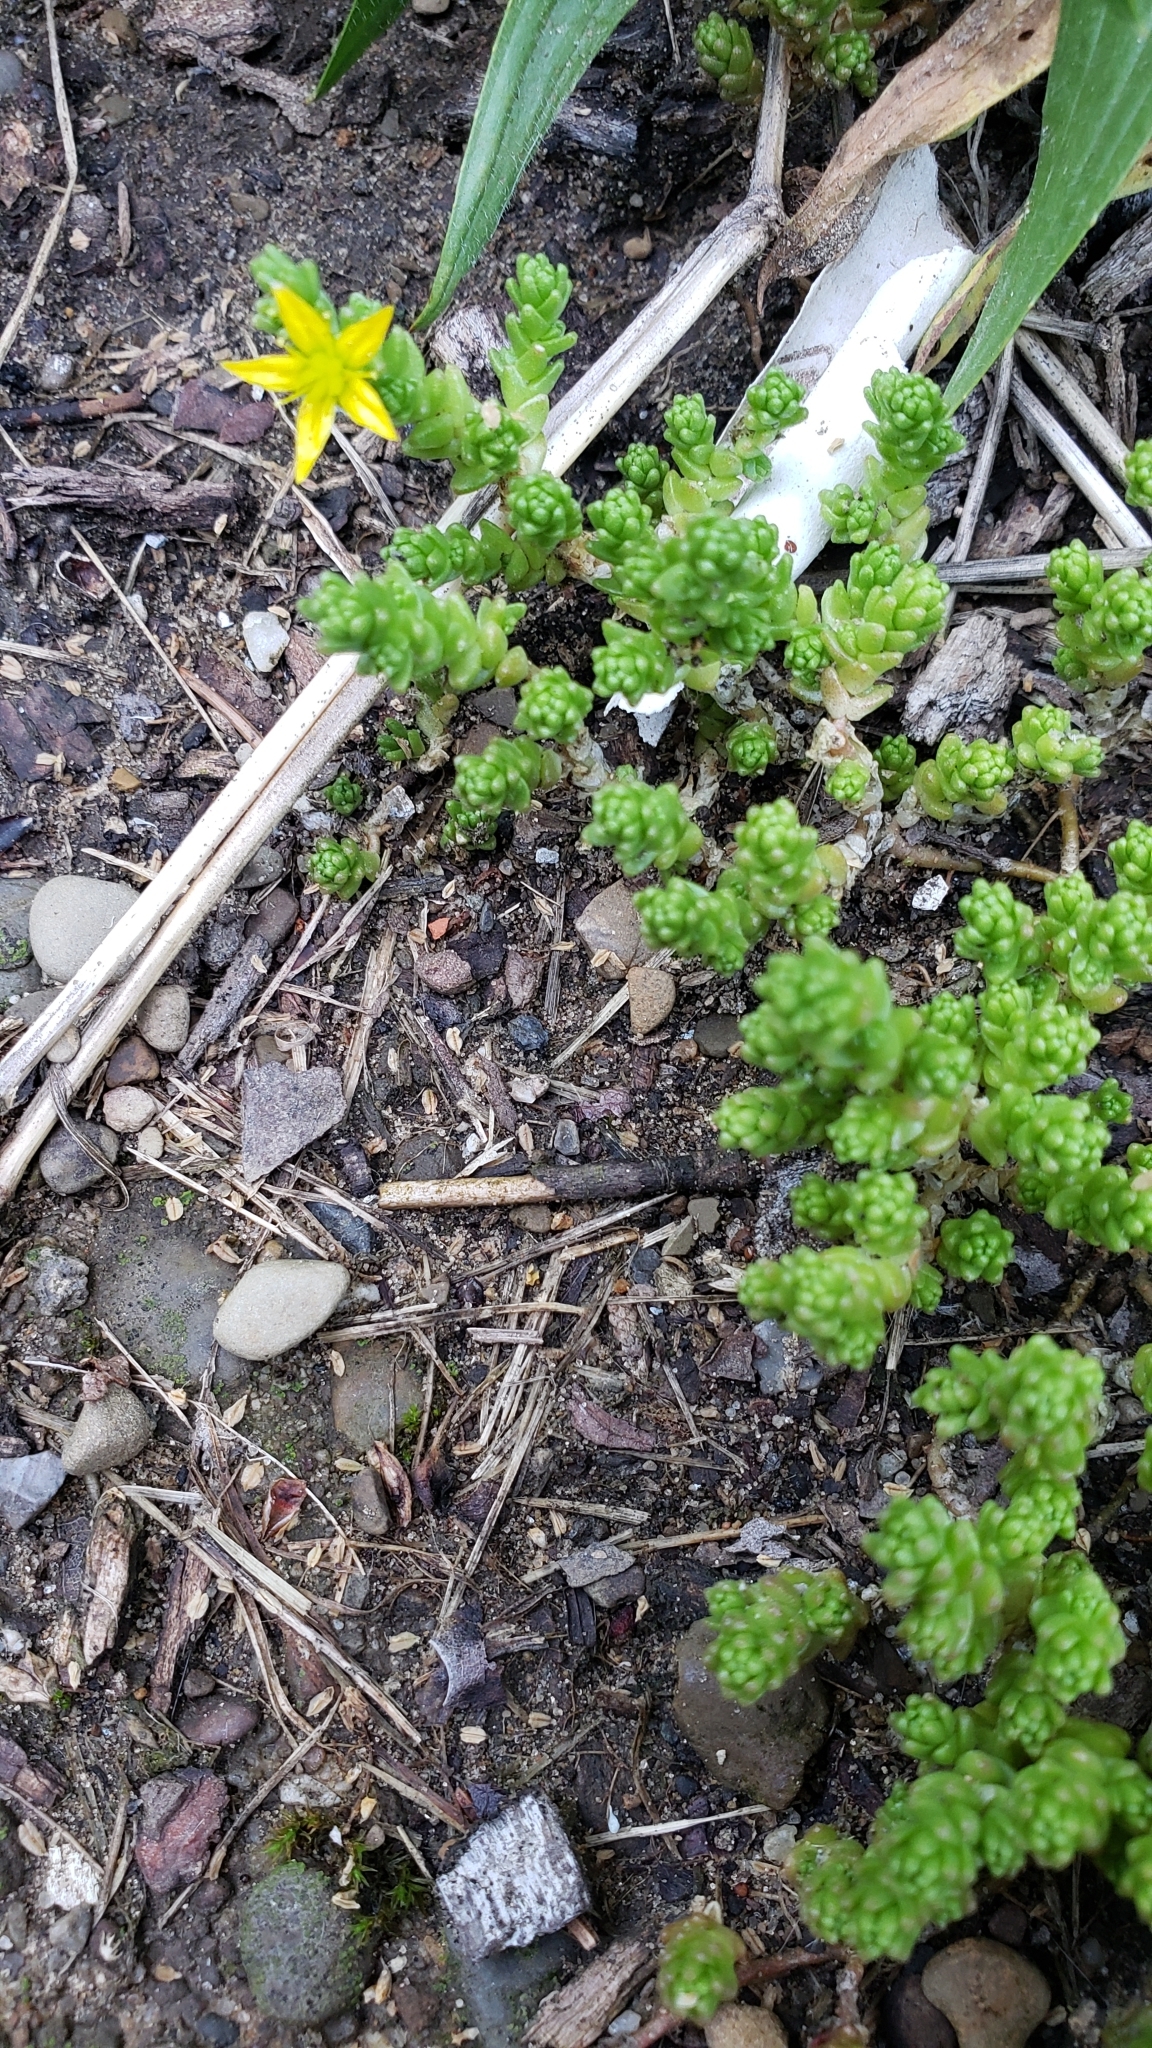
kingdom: Plantae
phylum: Tracheophyta
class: Magnoliopsida
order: Saxifragales
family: Crassulaceae
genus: Sedum
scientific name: Sedum acre
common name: Biting stonecrop
